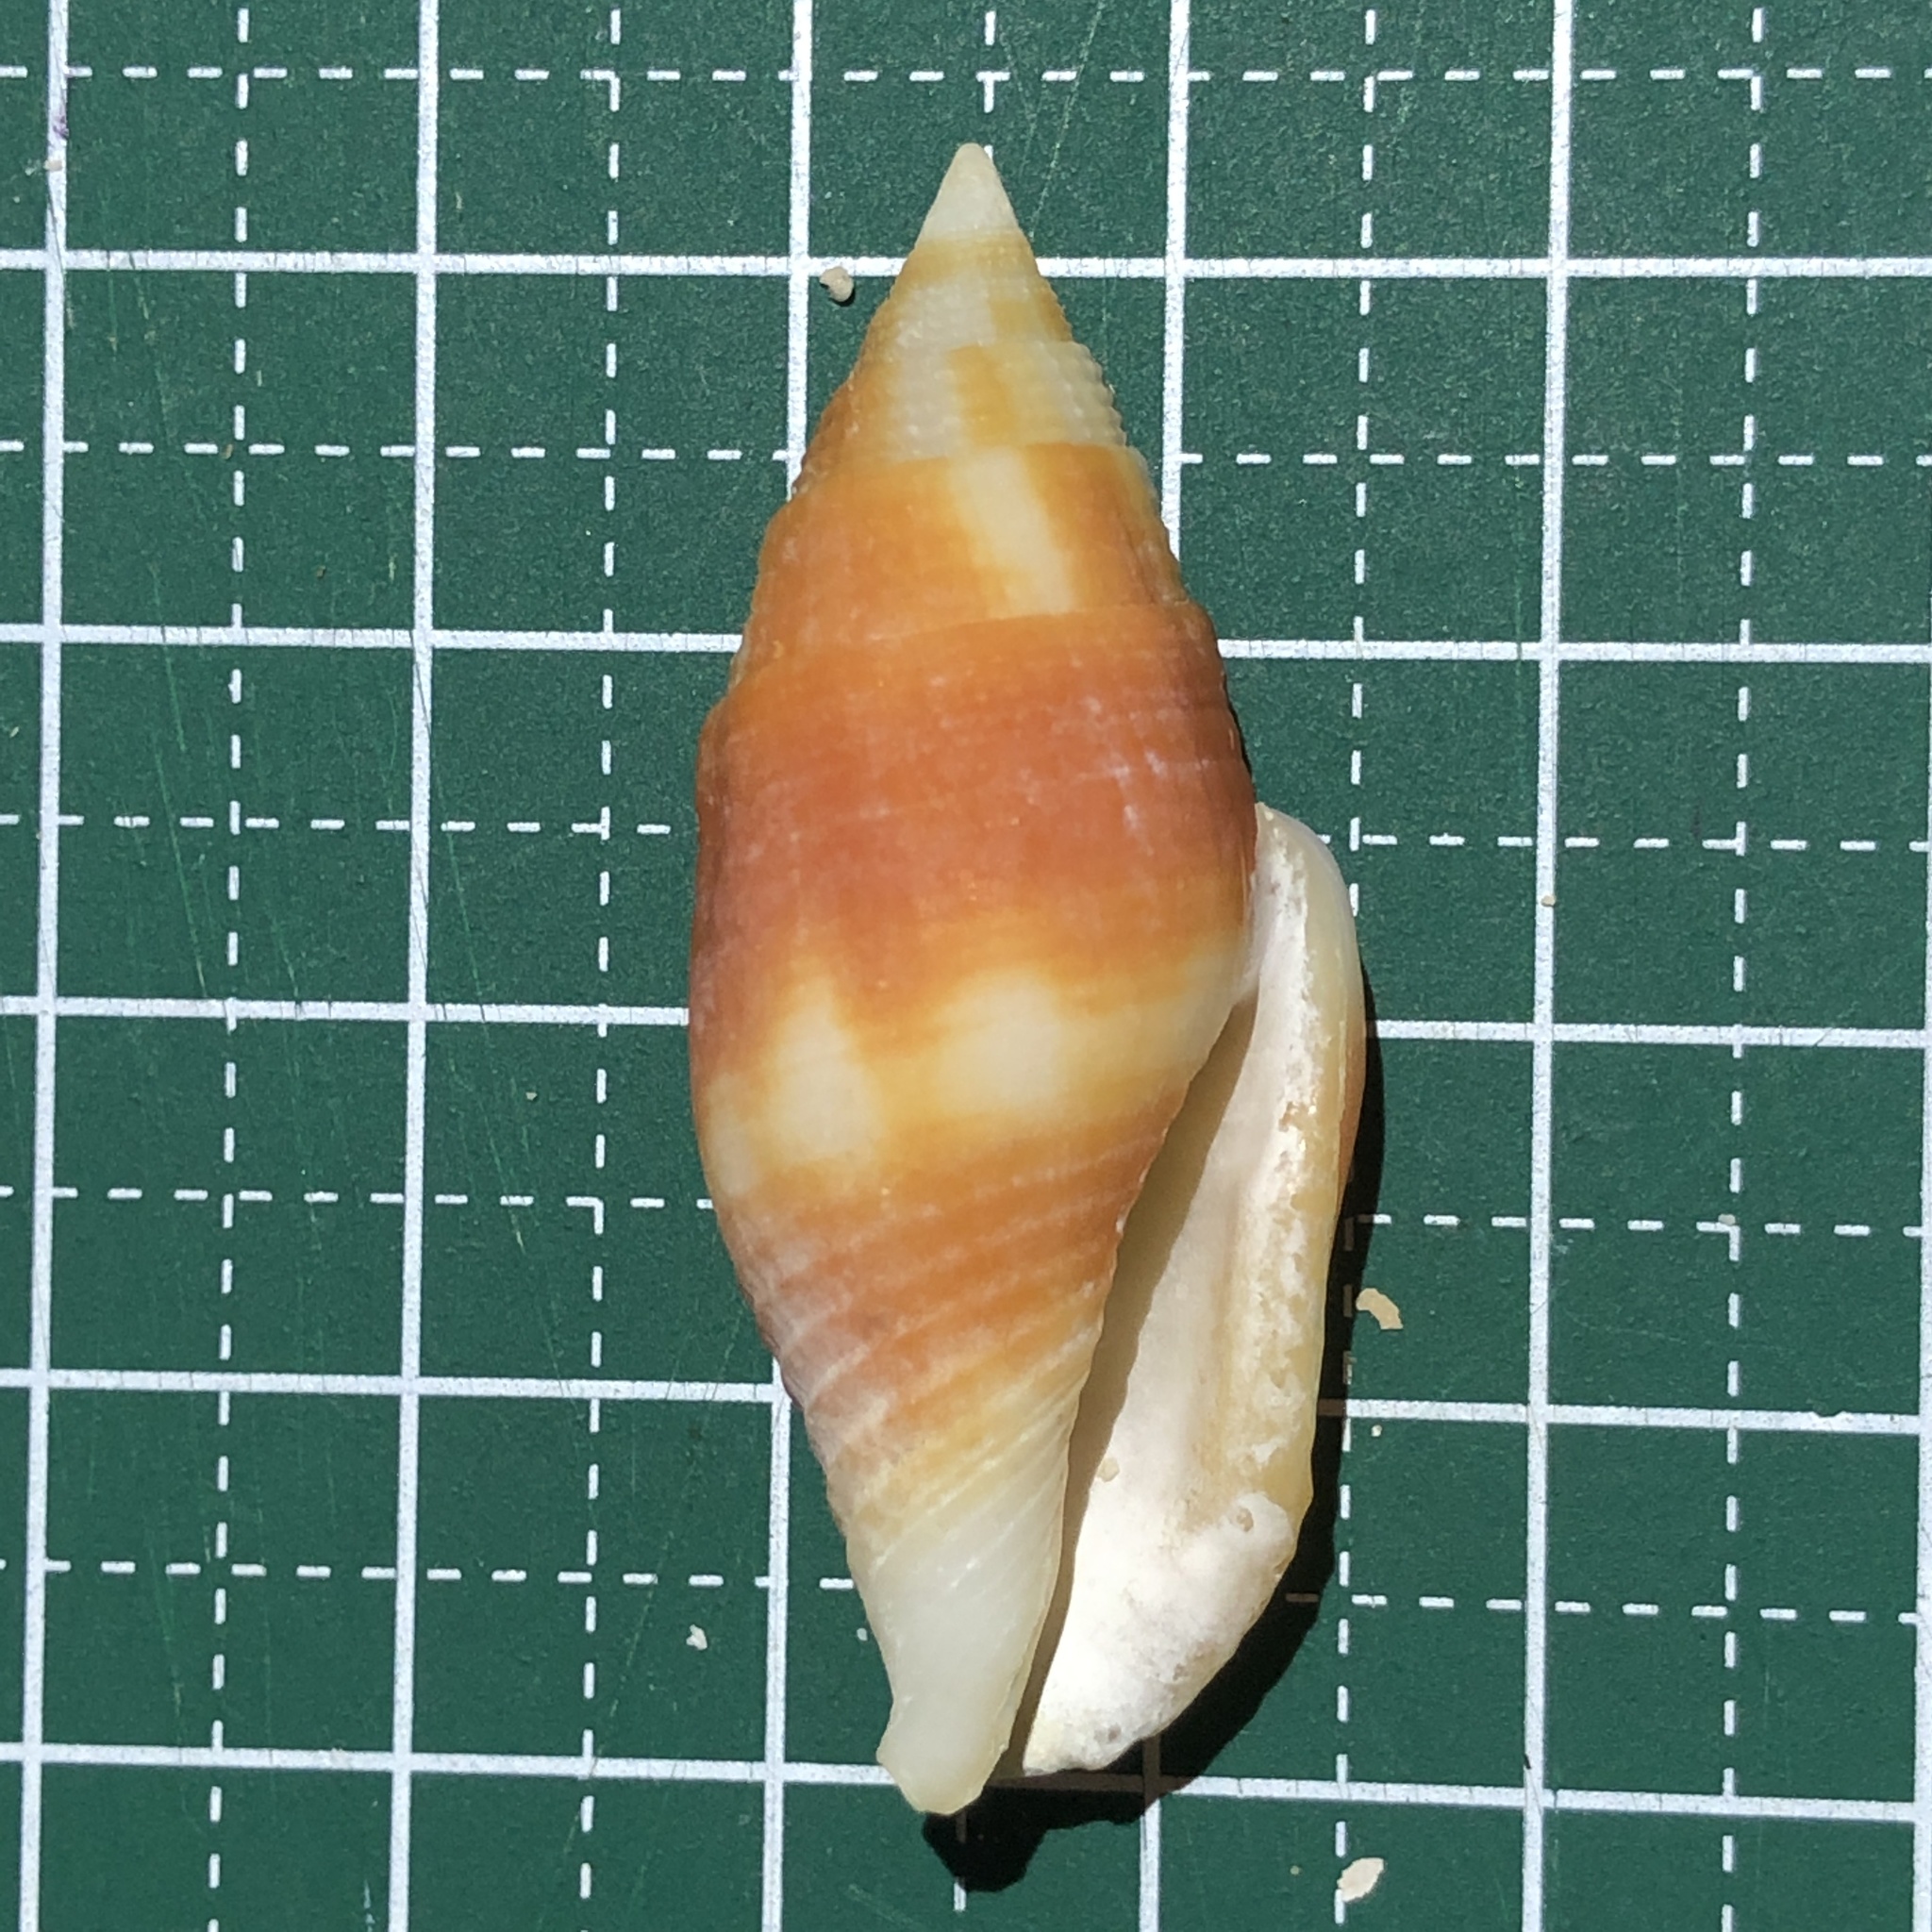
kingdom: Animalia
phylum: Mollusca
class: Gastropoda
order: Neogastropoda
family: Mitridae
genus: Nebularia
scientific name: Nebularia chrysostoma
